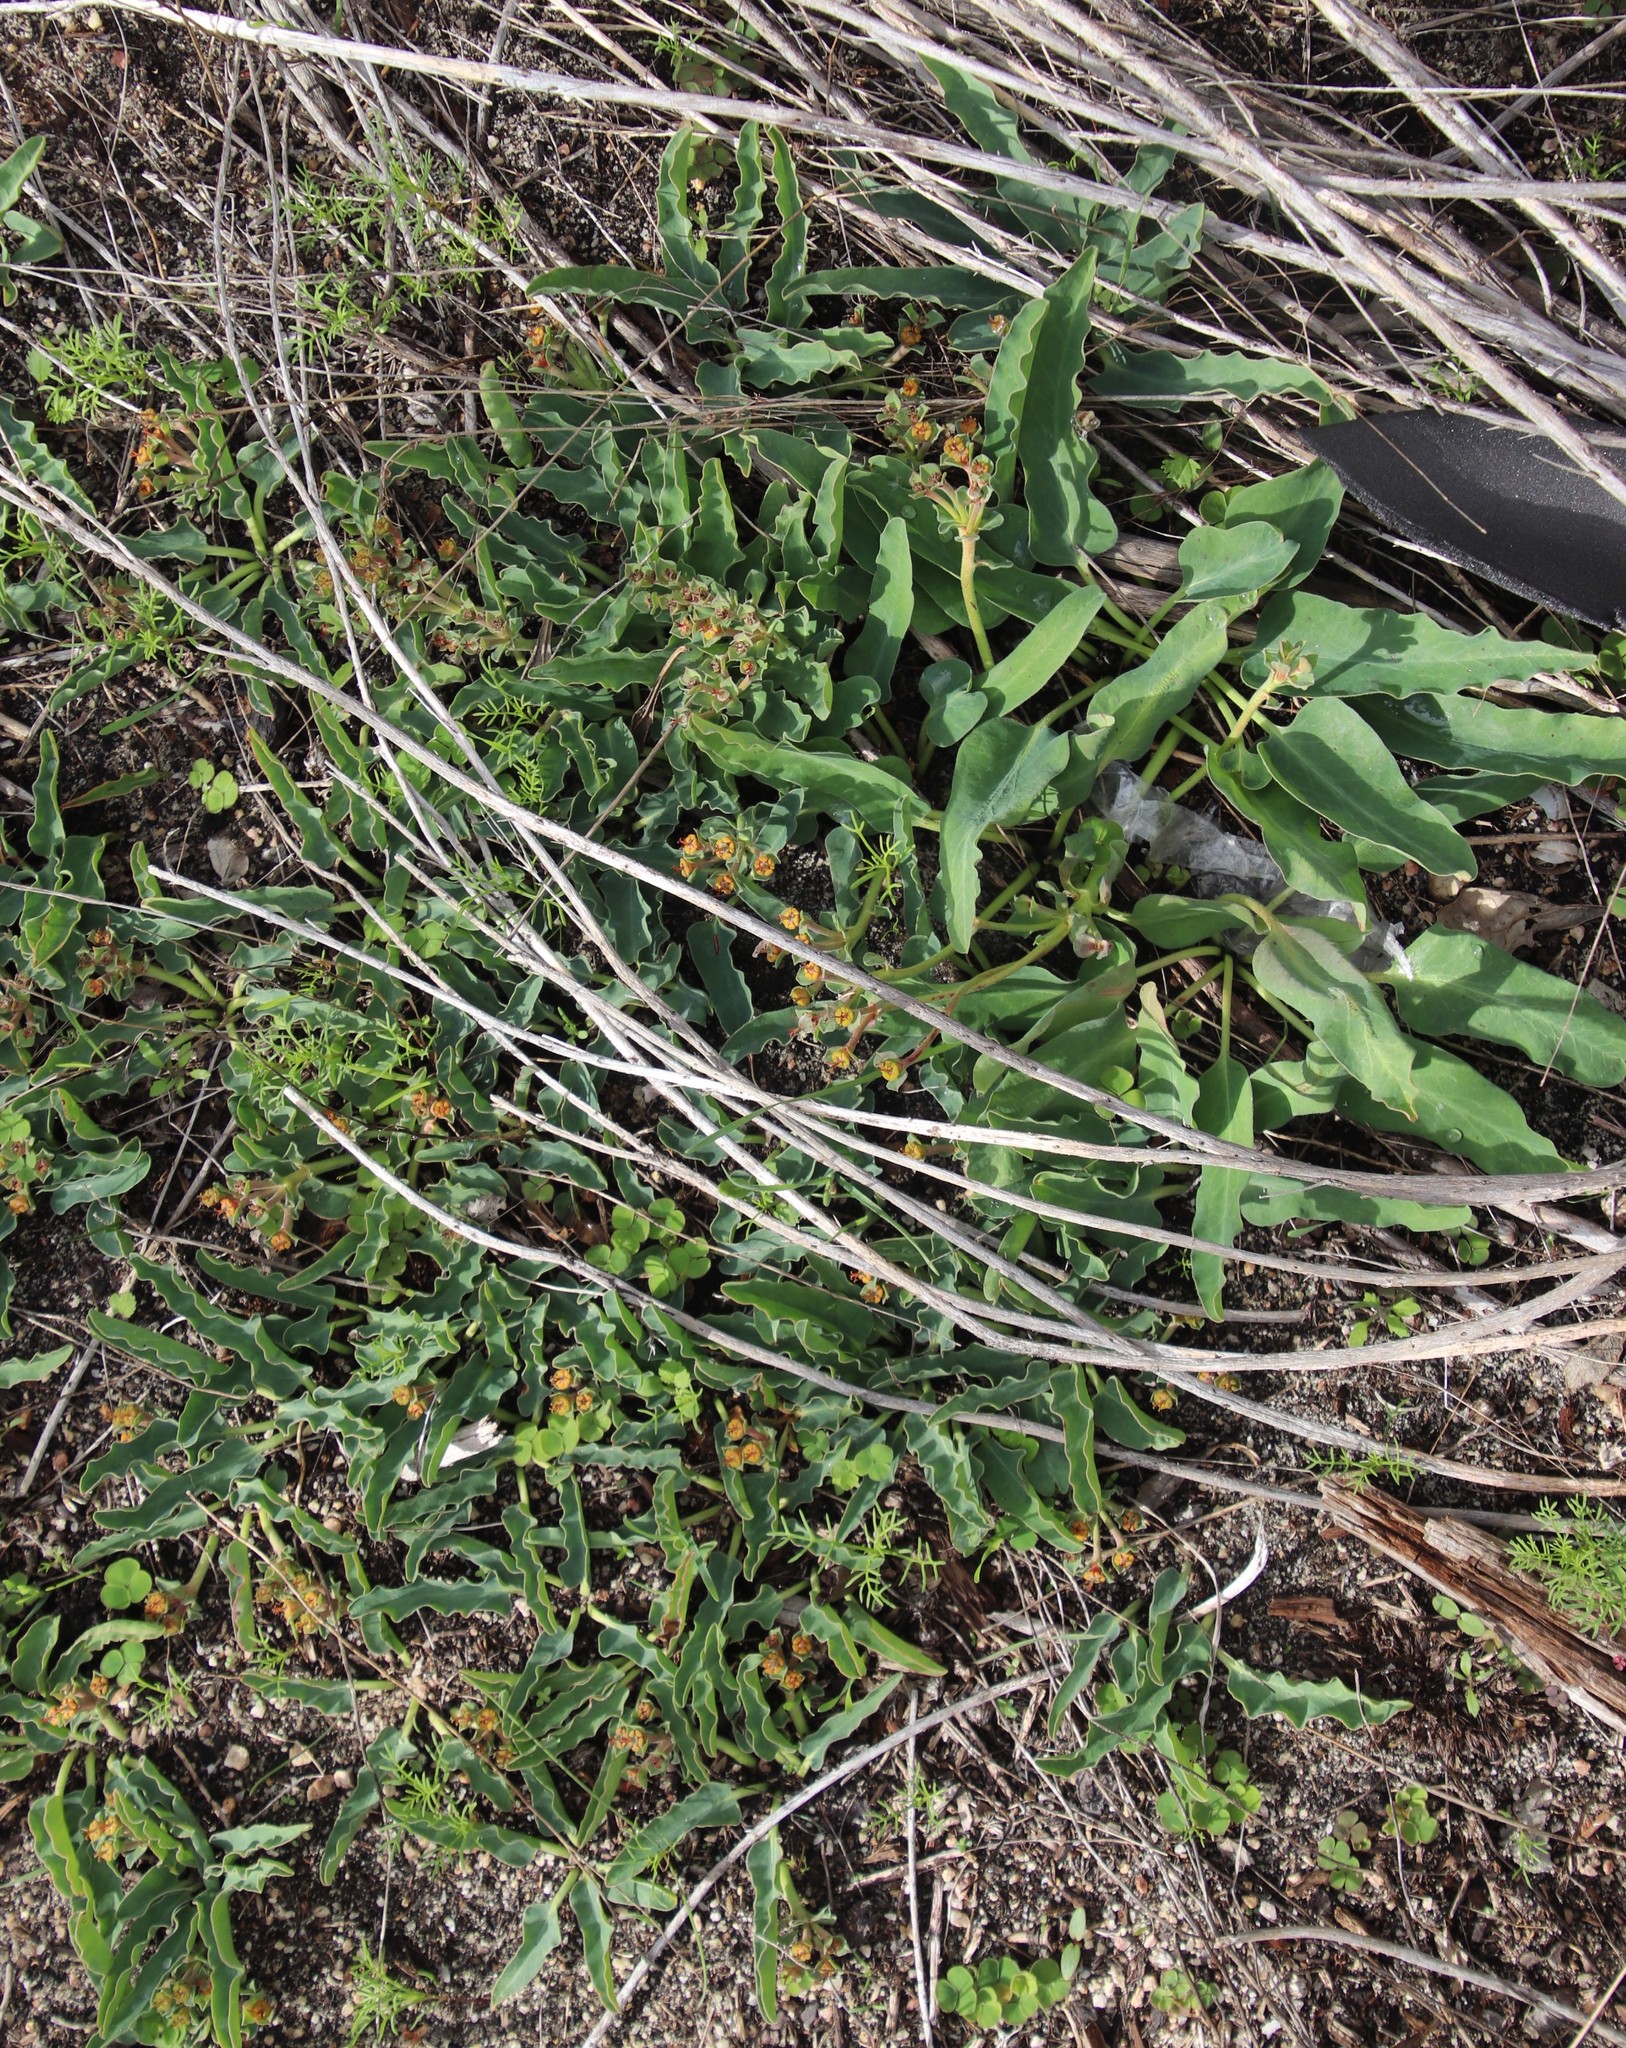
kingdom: Plantae
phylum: Tracheophyta
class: Magnoliopsida
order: Malpighiales
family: Euphorbiaceae
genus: Euphorbia
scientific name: Euphorbia tuberosa
